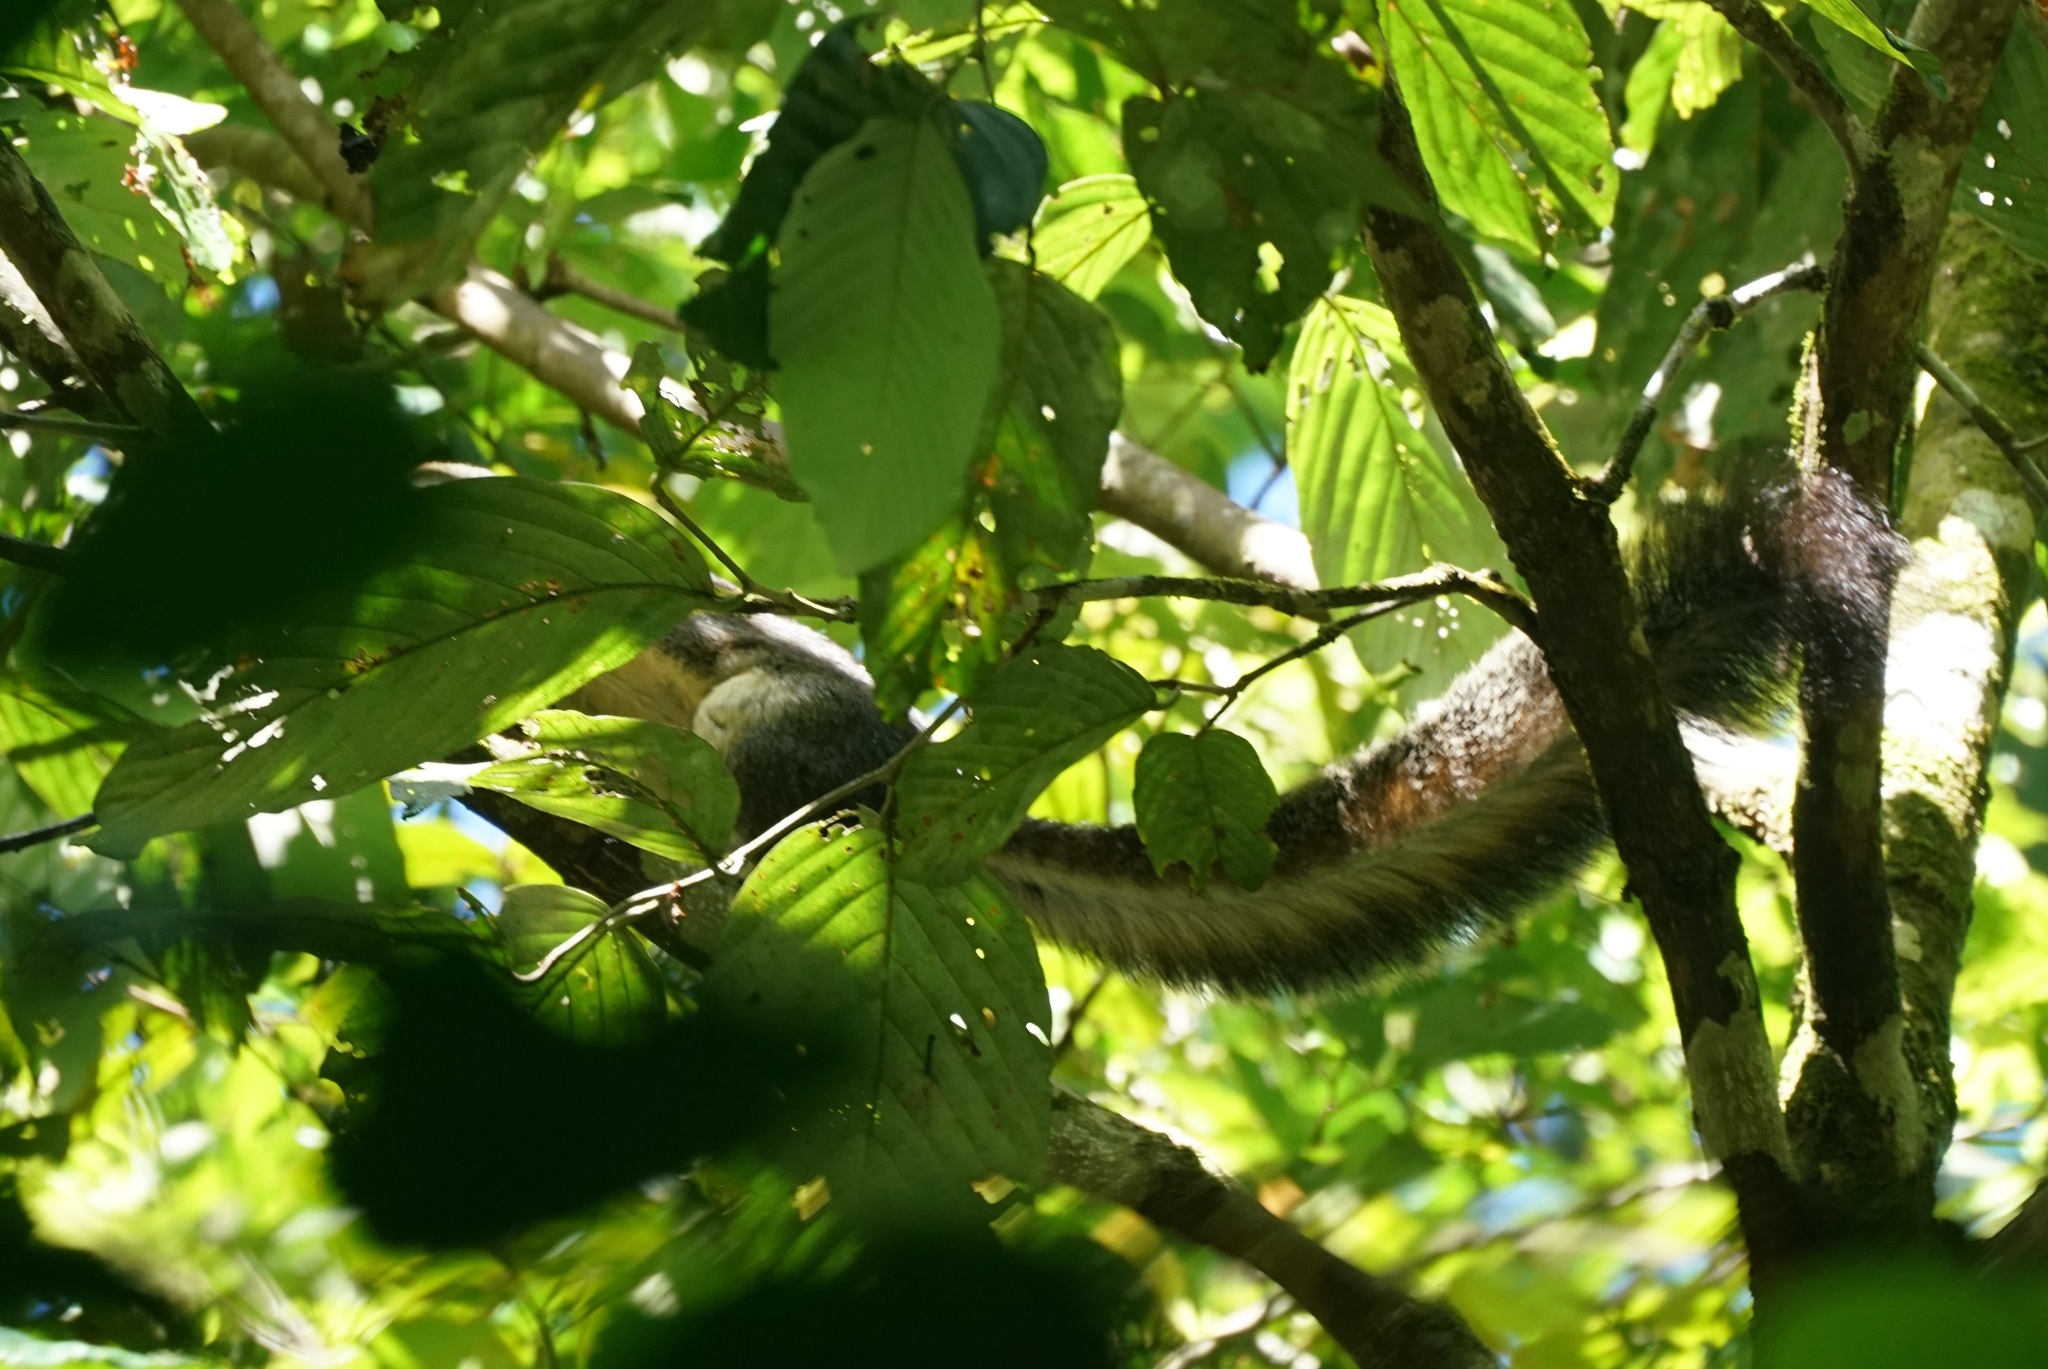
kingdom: Animalia
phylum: Chordata
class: Mammalia
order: Rodentia
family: Sciuridae
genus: Ratufa
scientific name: Ratufa affinis
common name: Pale giant squirrel
